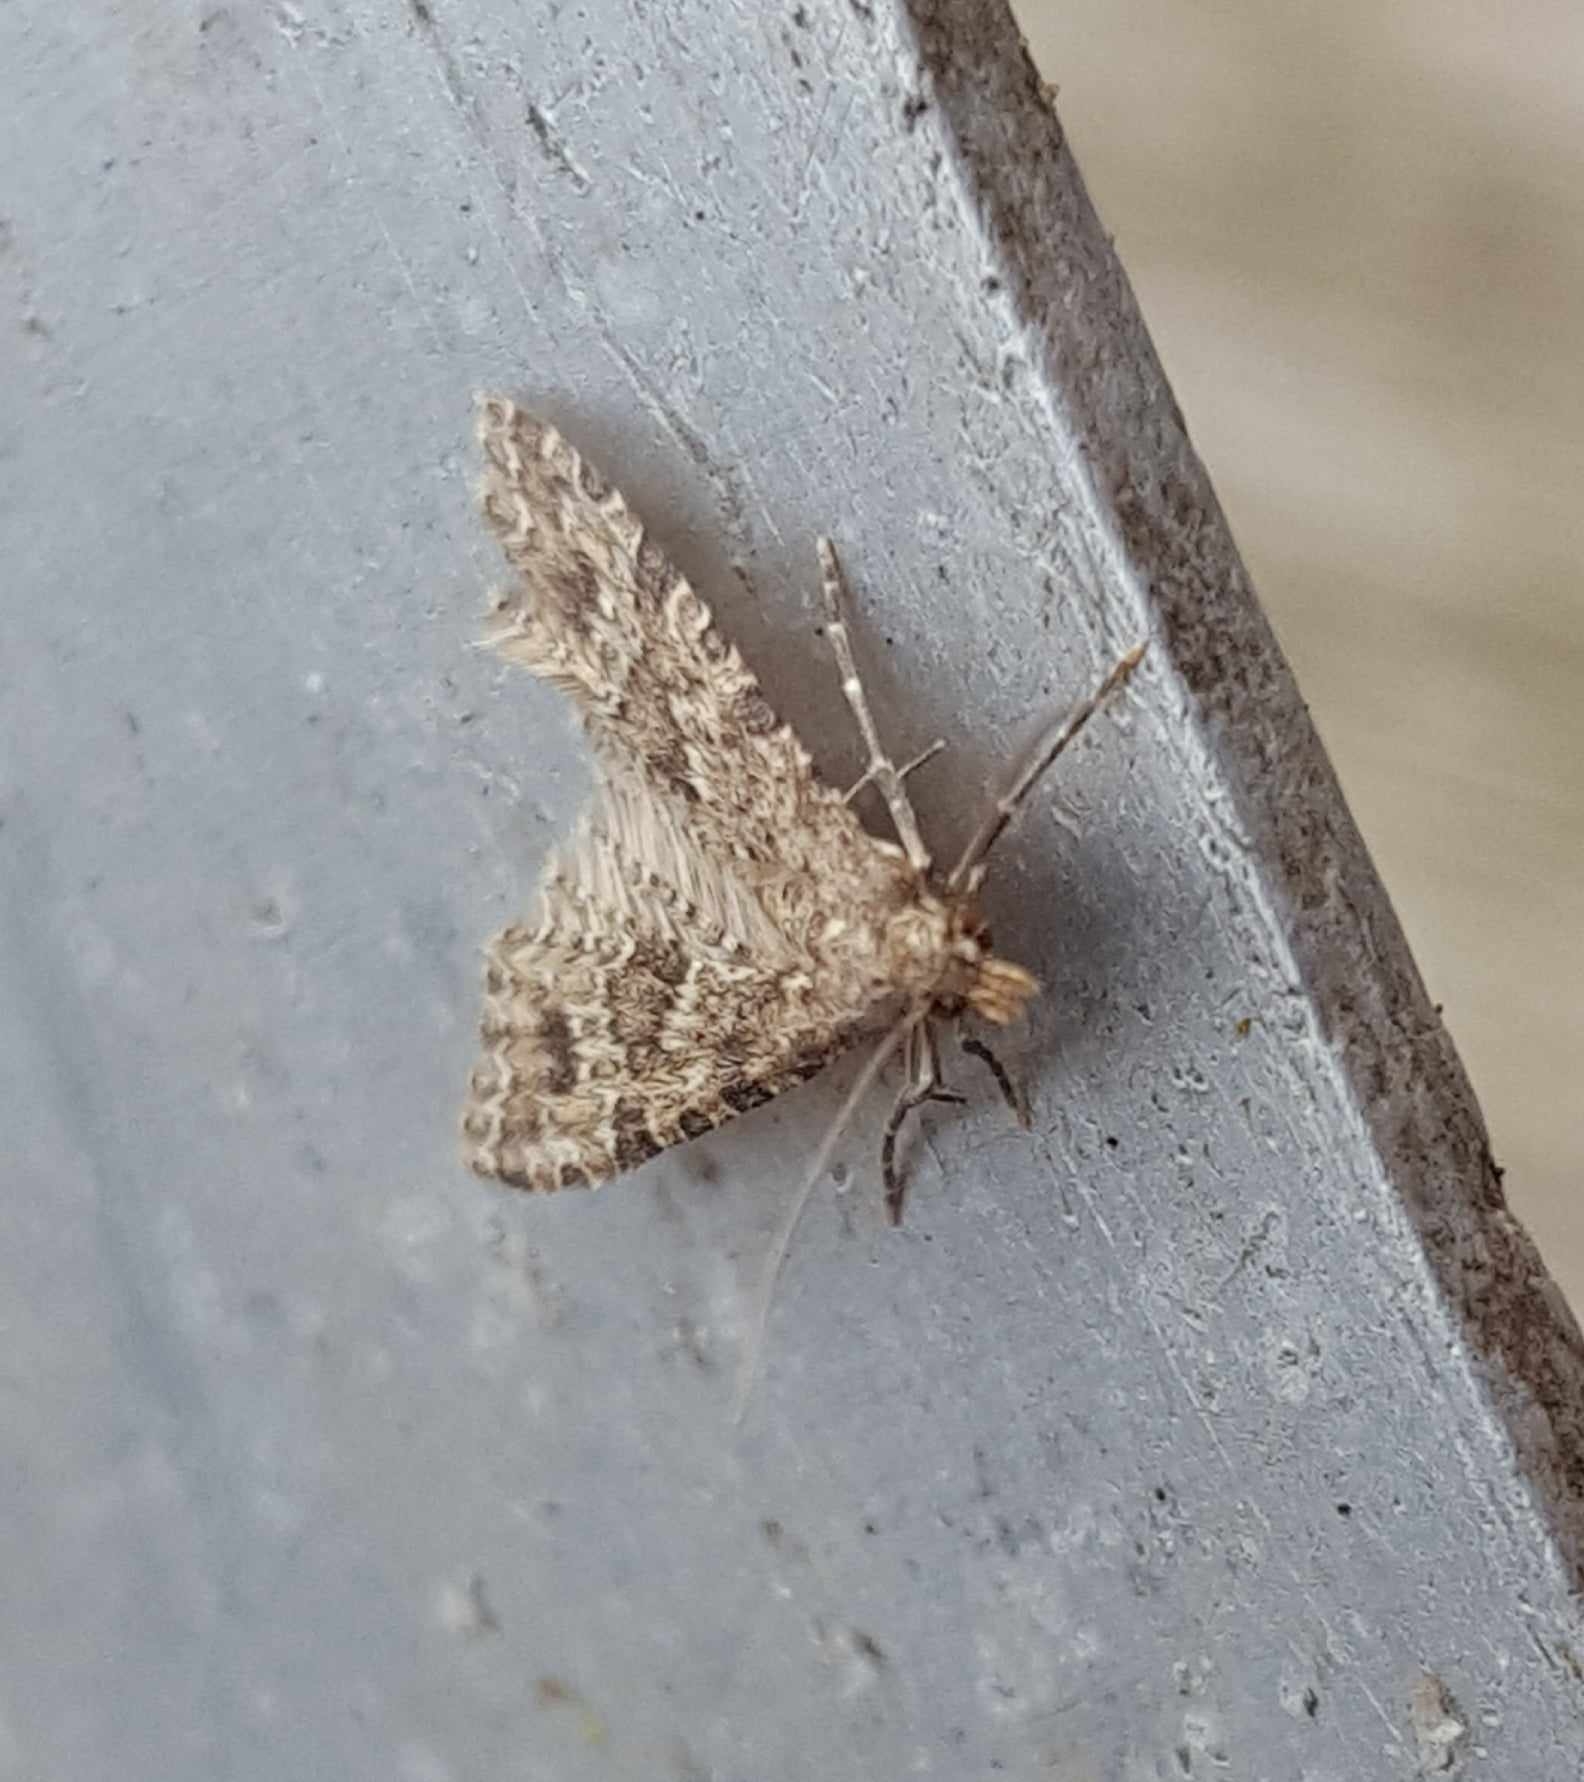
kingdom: Animalia
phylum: Arthropoda
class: Insecta
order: Lepidoptera
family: Alucitidae
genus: Alucita
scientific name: Alucita hexadactyla
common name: Twenty-plume moth
